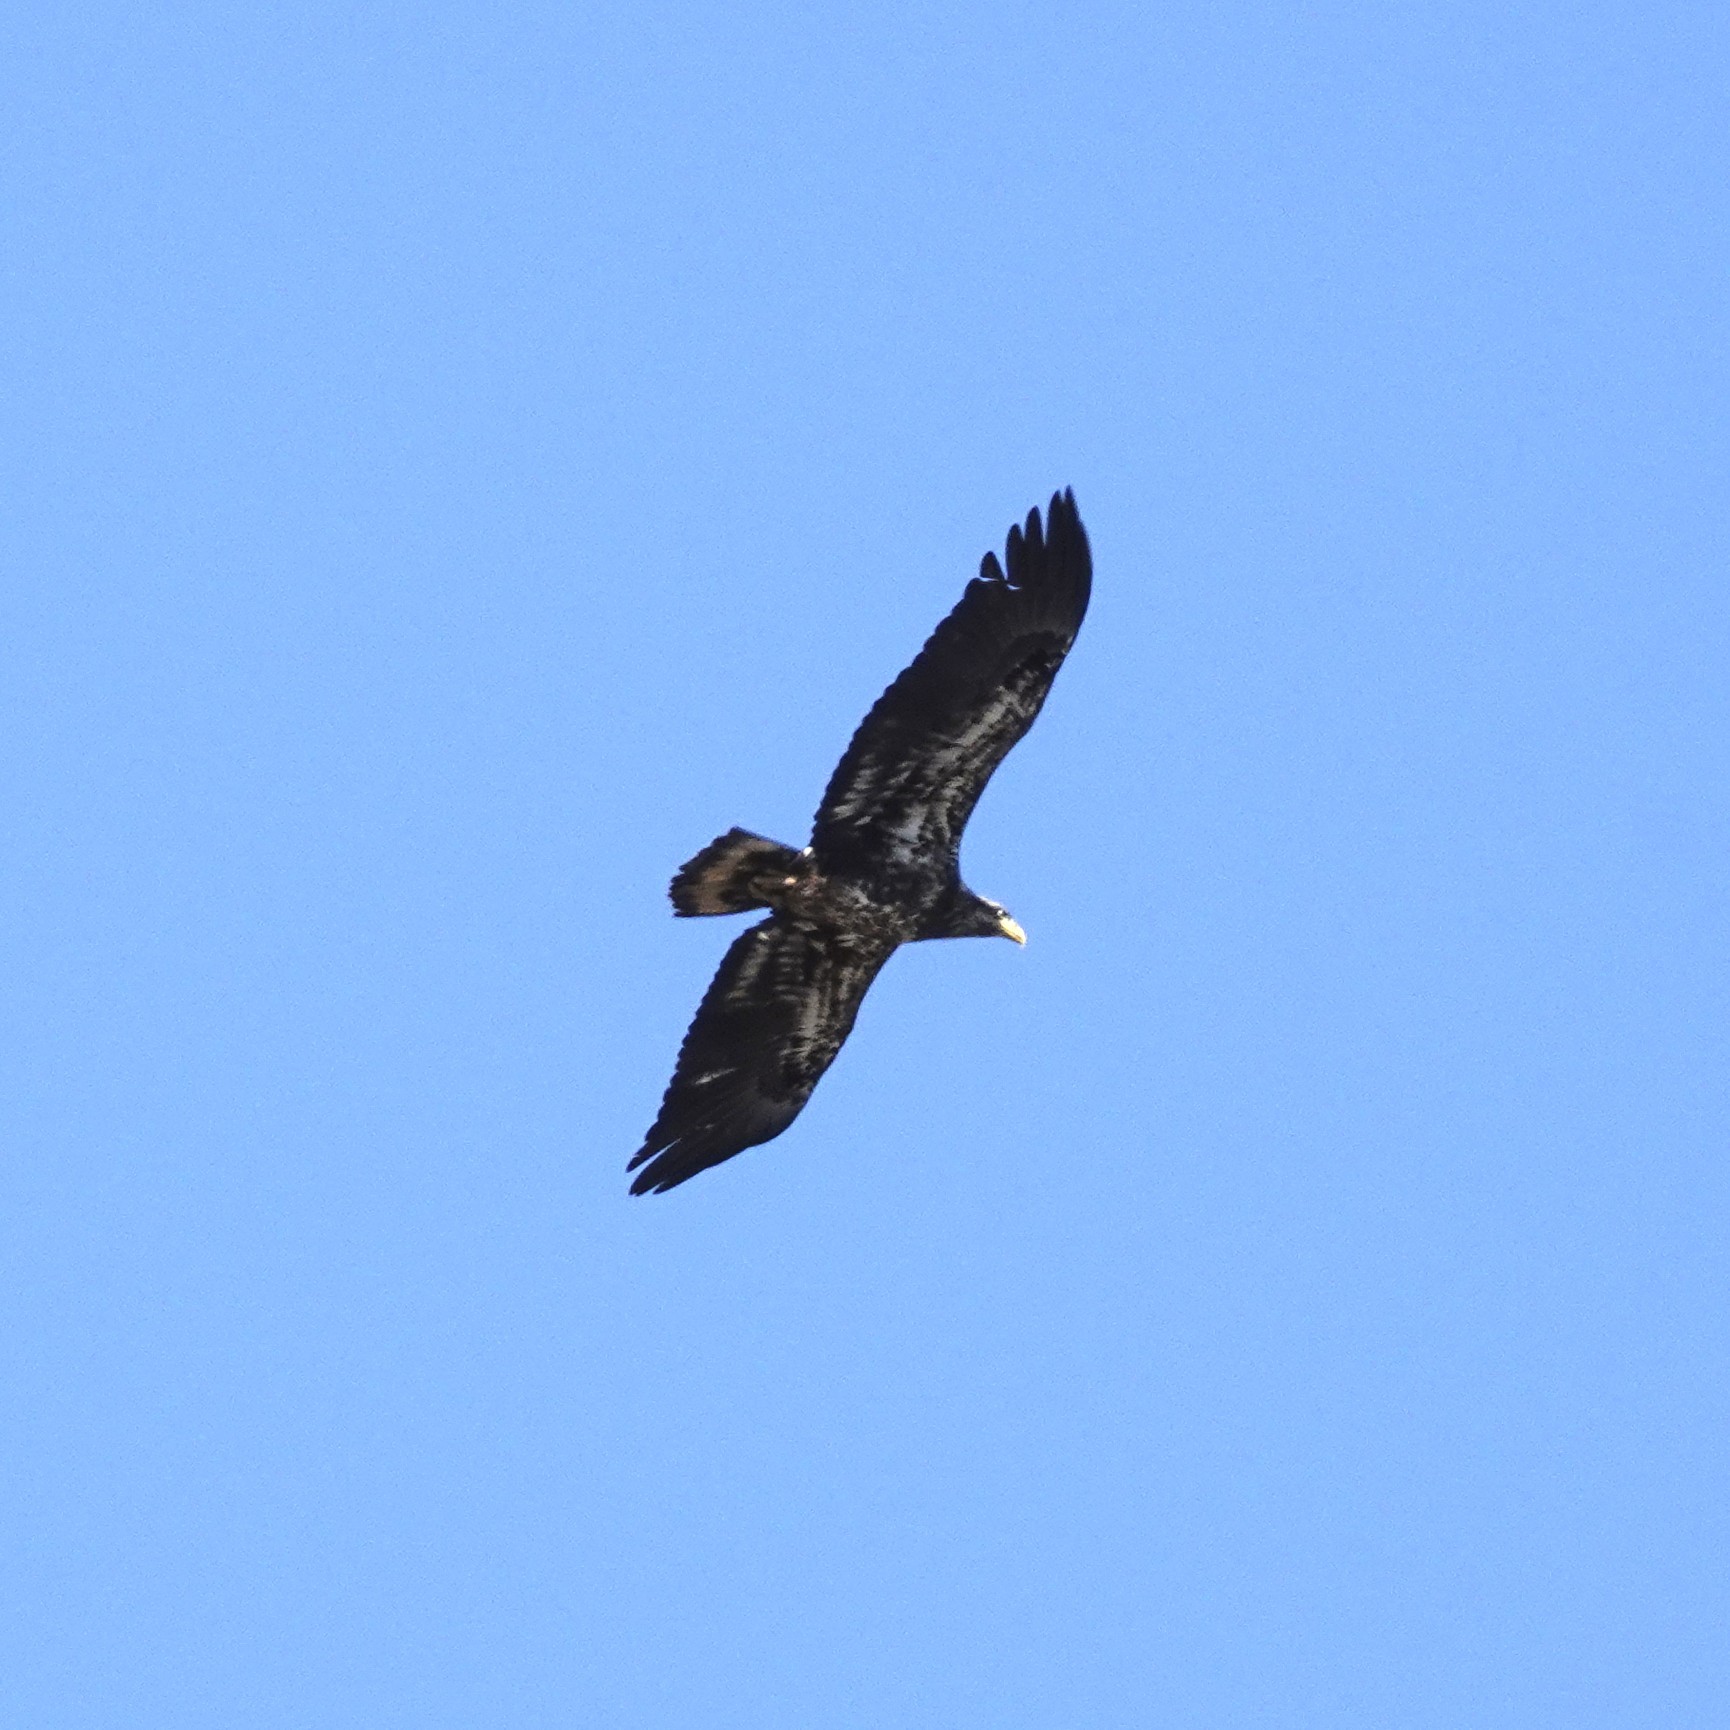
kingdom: Animalia
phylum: Chordata
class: Aves
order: Accipitriformes
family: Accipitridae
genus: Haliaeetus
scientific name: Haliaeetus leucocephalus
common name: Bald eagle
